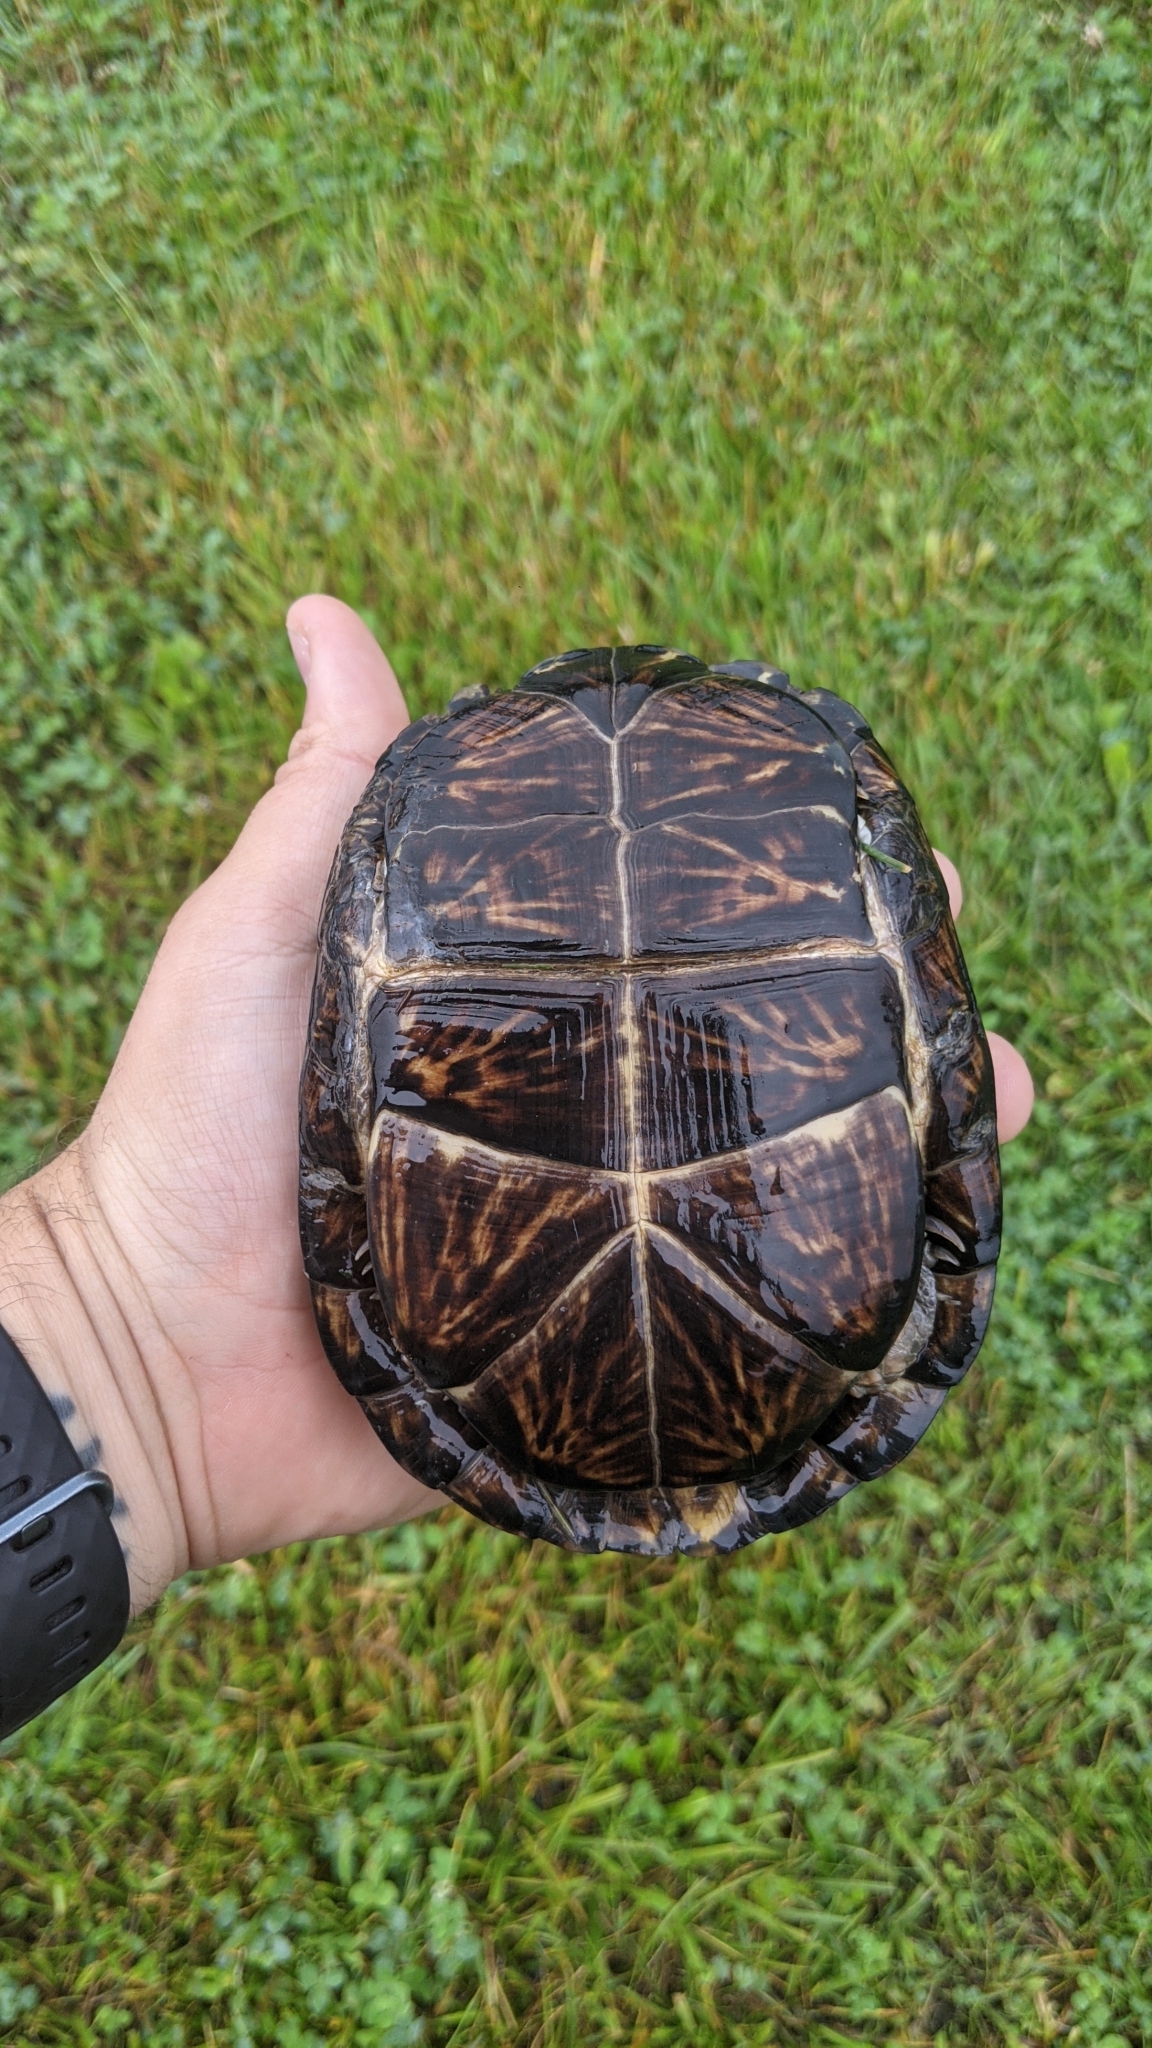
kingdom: Animalia
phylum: Chordata
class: Testudines
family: Emydidae
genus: Terrapene
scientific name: Terrapene carolina
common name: Common box turtle
